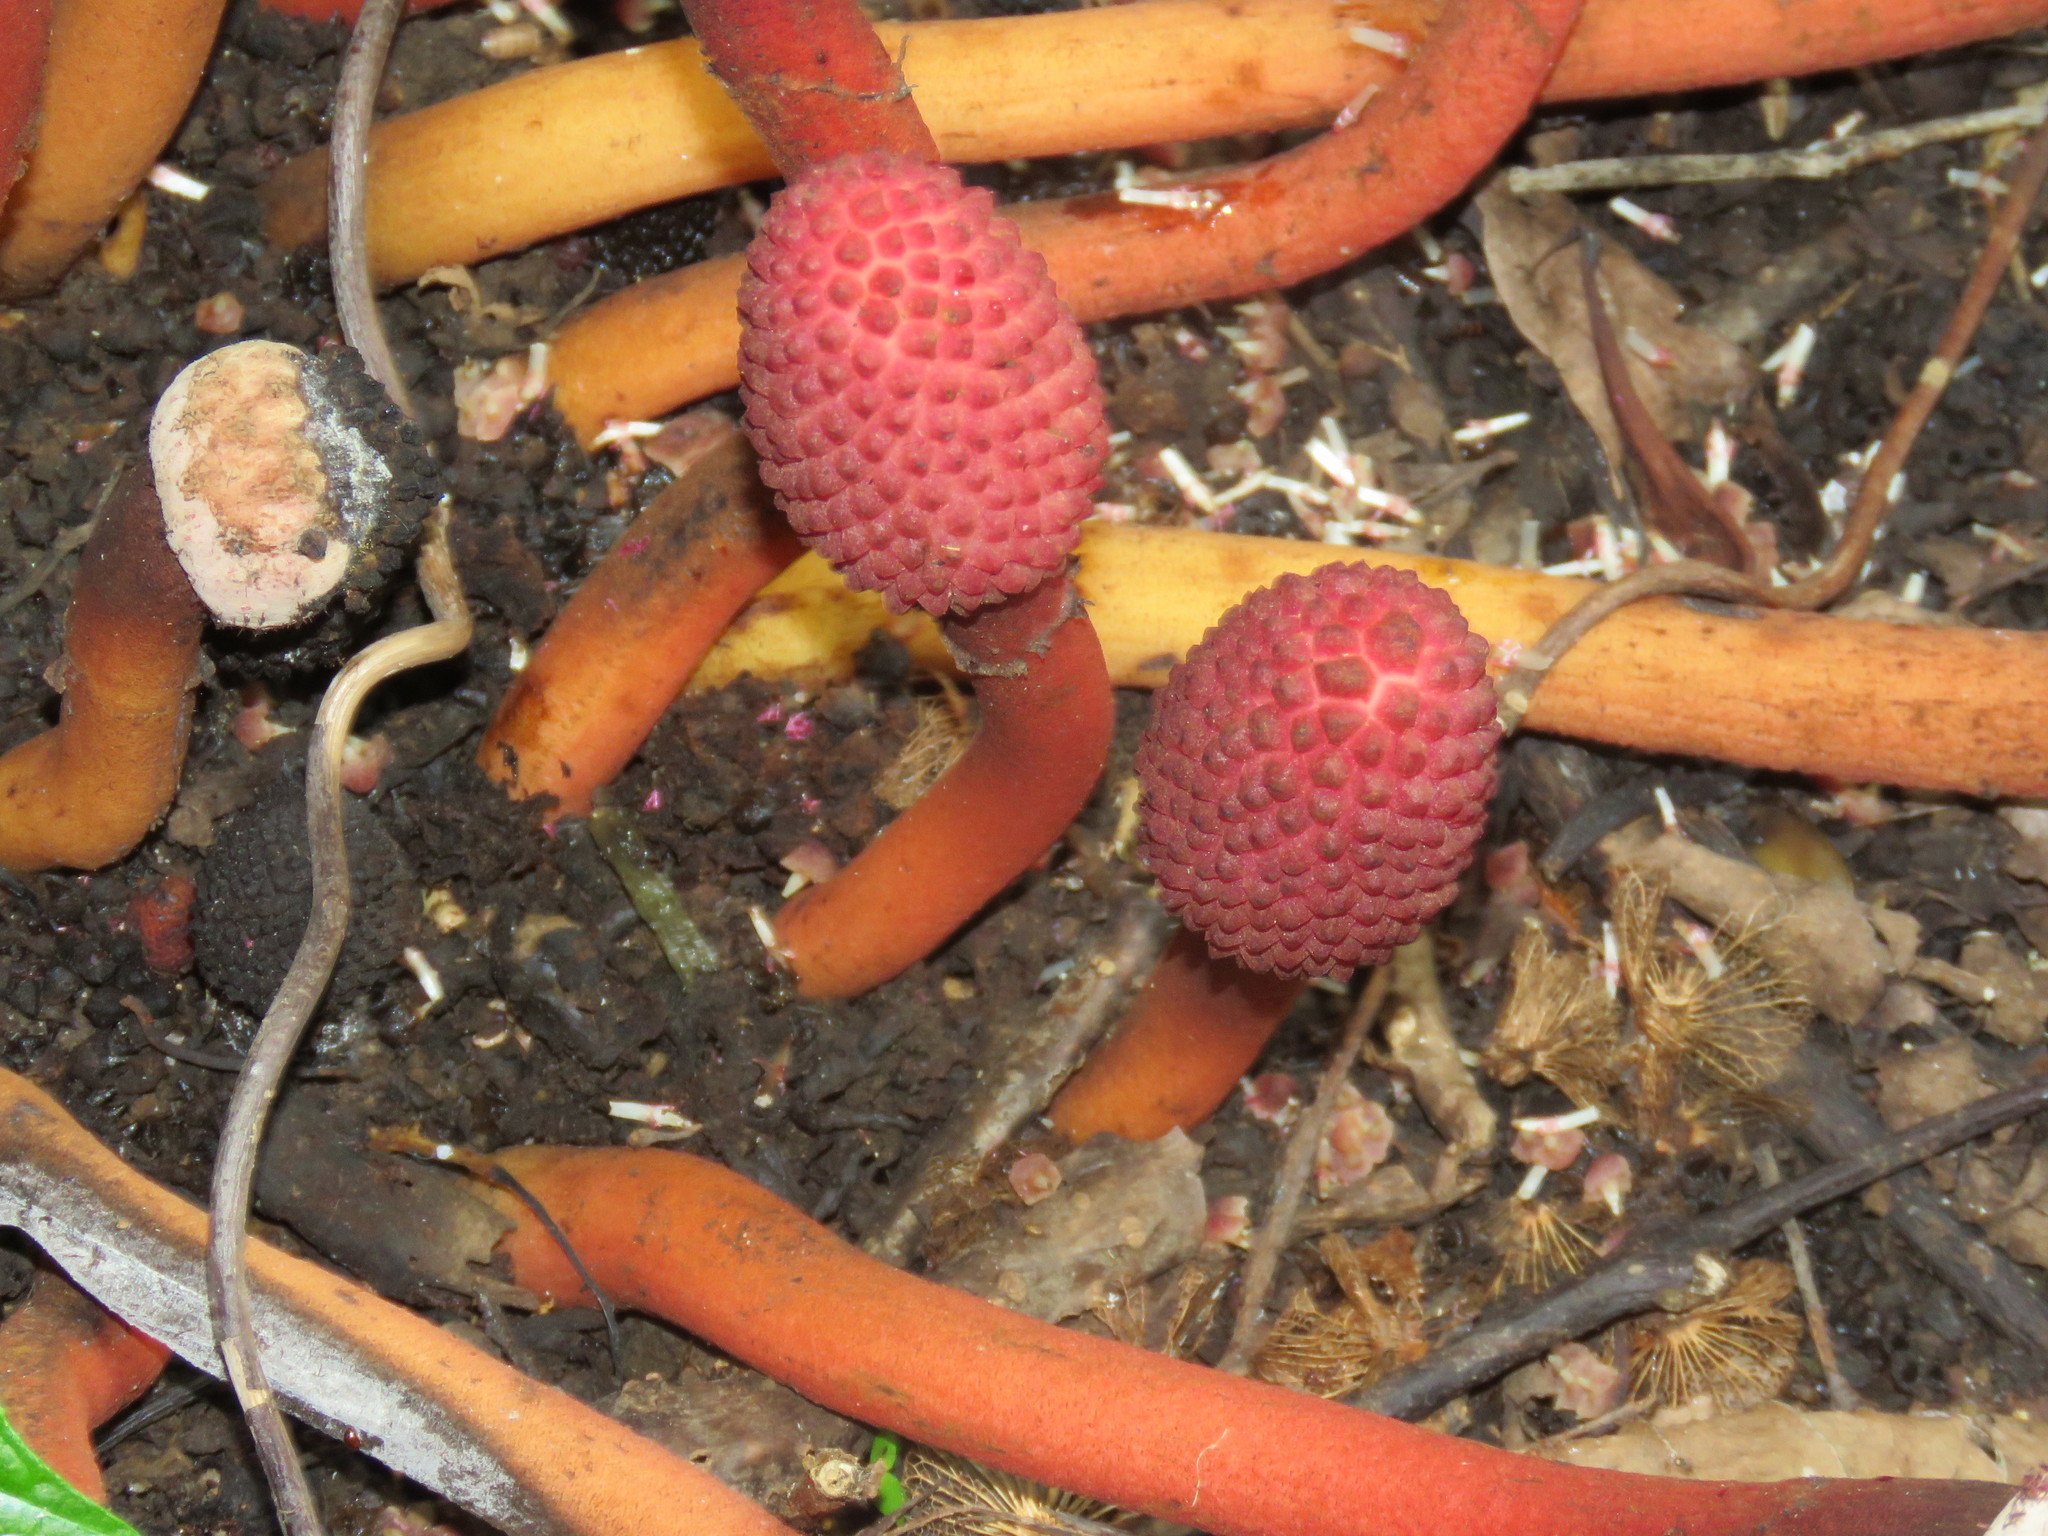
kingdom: Plantae
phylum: Tracheophyta
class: Magnoliopsida
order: Santalales
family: Balanophoraceae
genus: Helosis
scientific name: Helosis cayennensis
